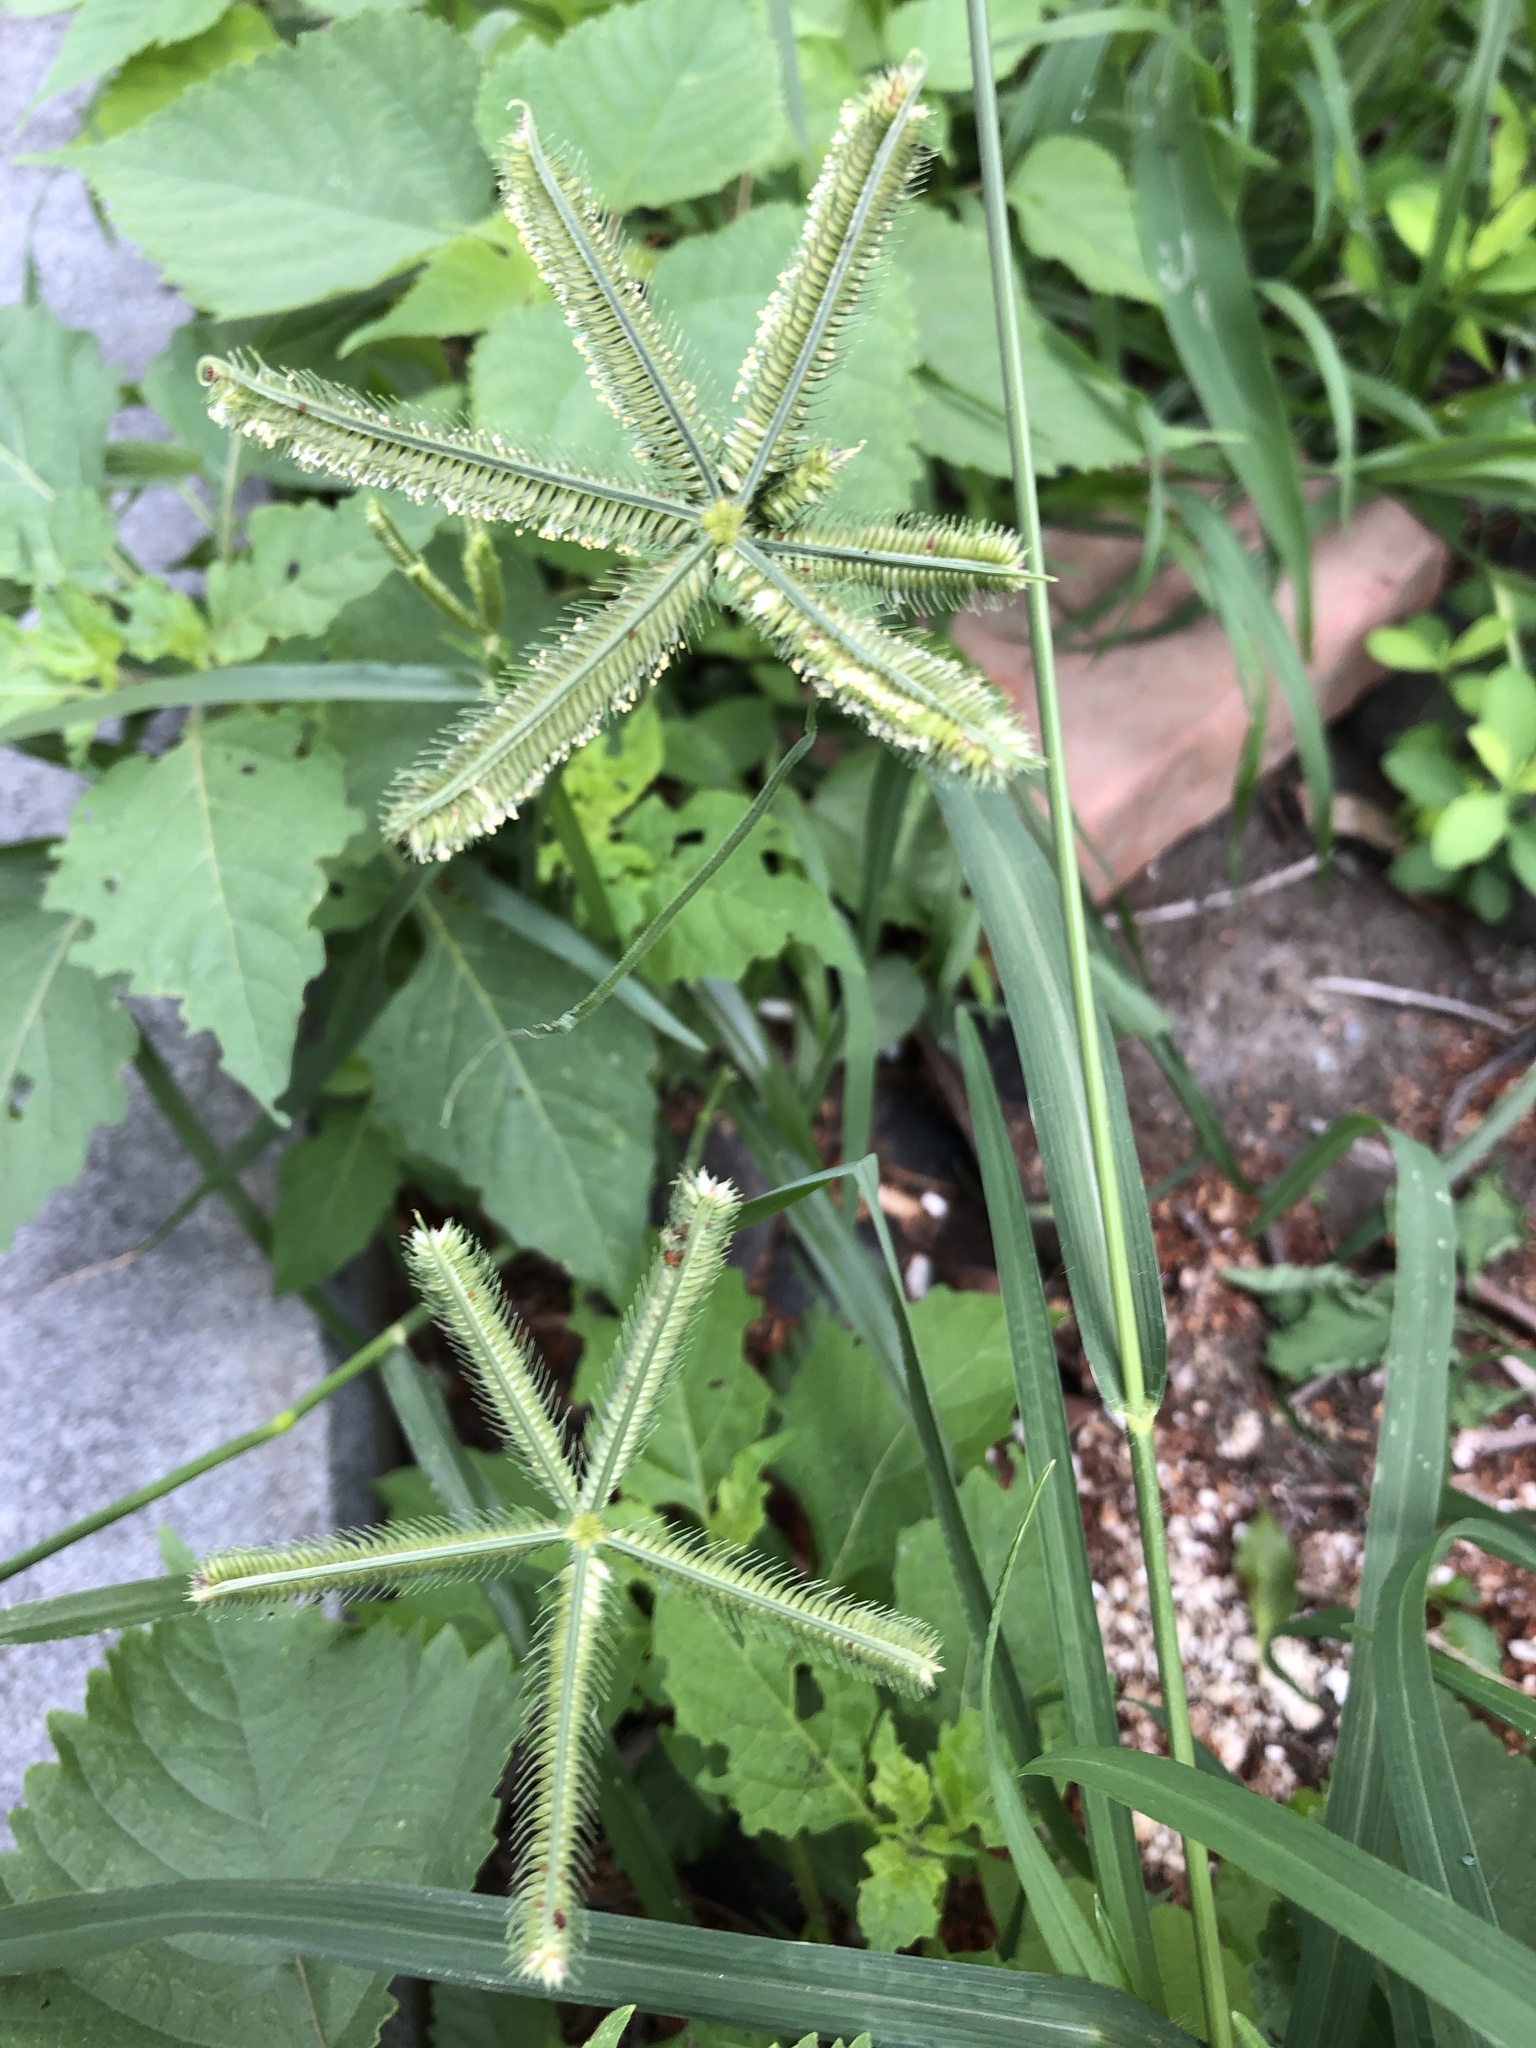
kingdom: Plantae
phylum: Tracheophyta
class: Liliopsida
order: Poales
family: Poaceae
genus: Dactyloctenium
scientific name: Dactyloctenium aegyptium
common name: Egyptian grass
